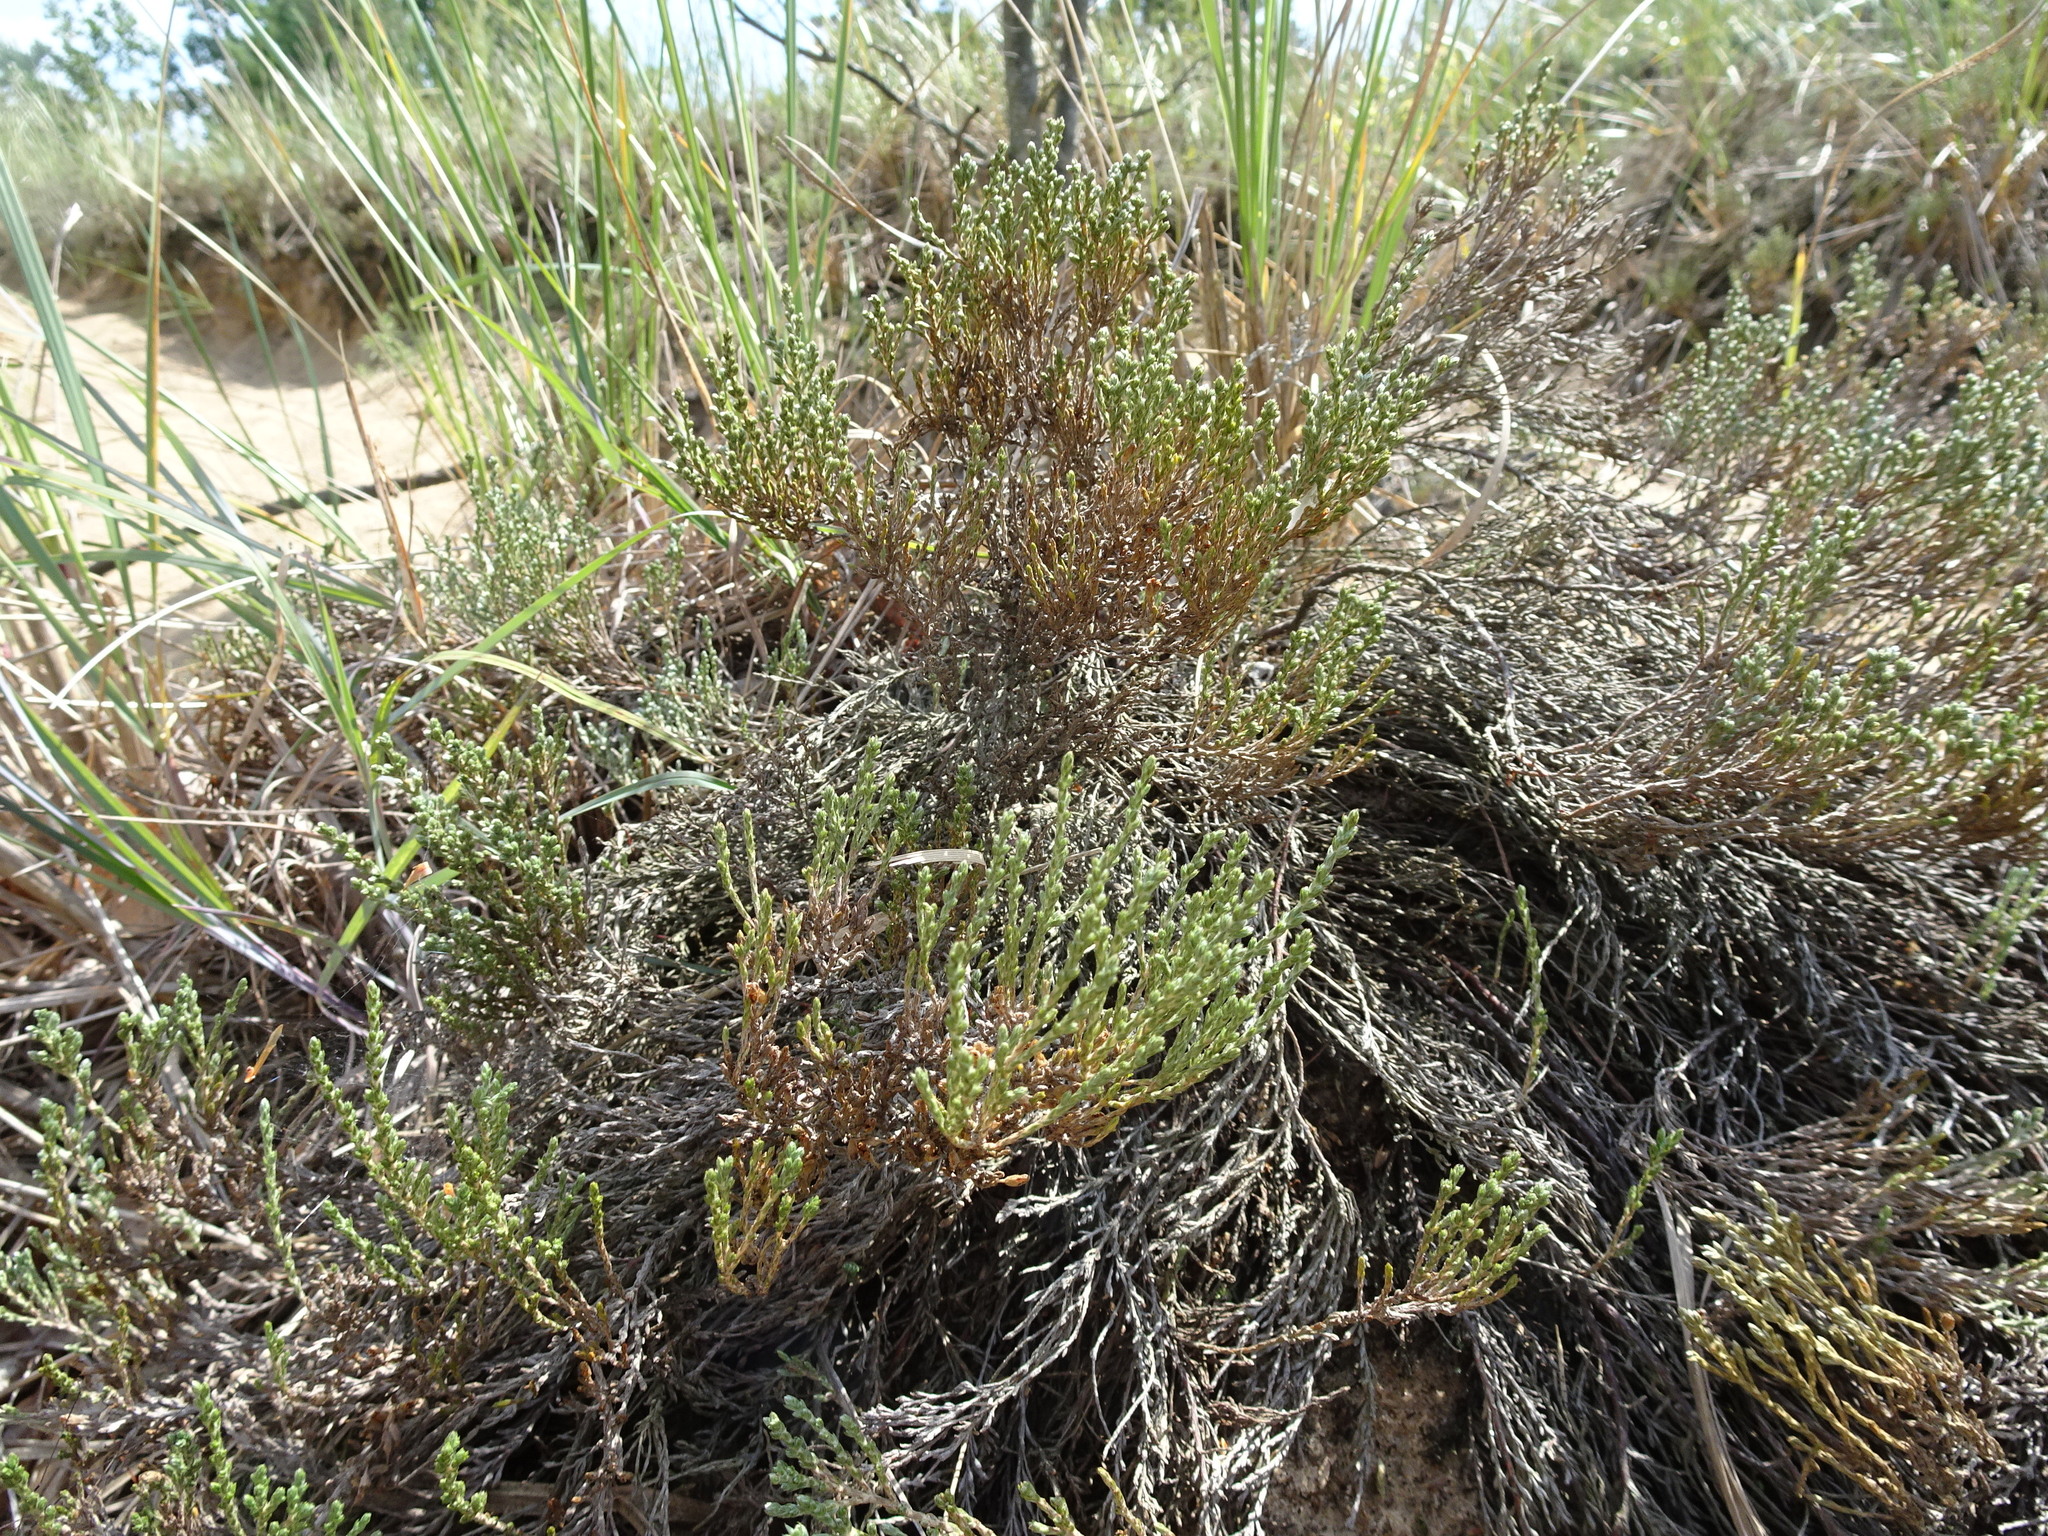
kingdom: Plantae
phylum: Tracheophyta
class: Magnoliopsida
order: Malvales
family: Cistaceae
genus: Hudsonia
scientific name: Hudsonia tomentosa
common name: Beach-heath
